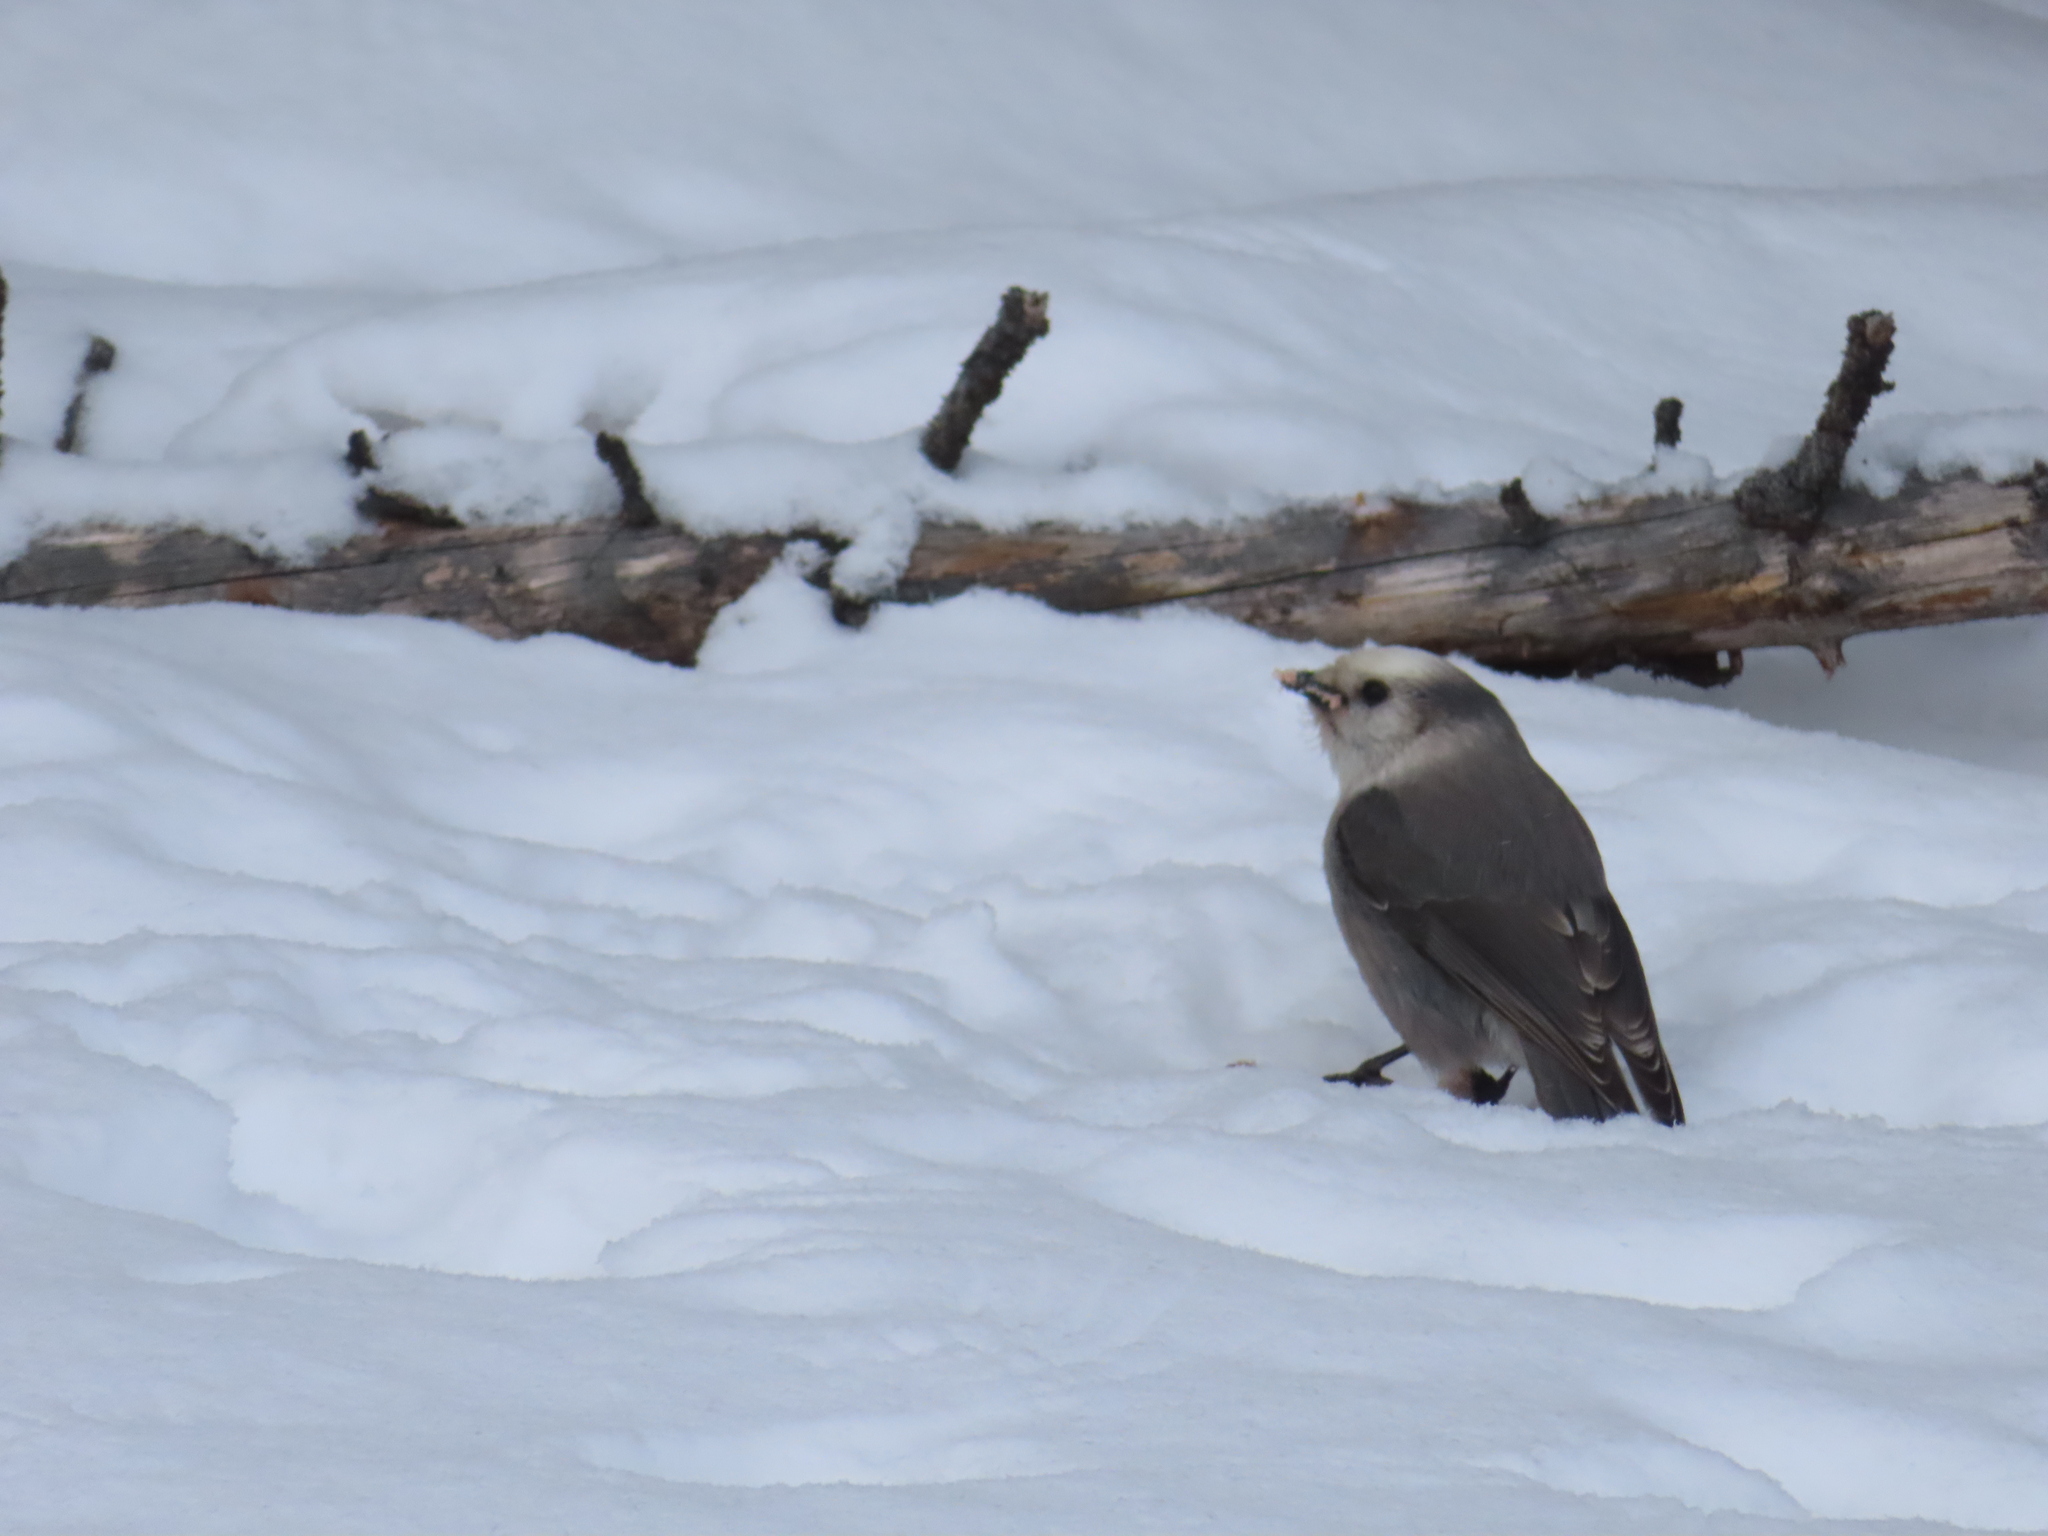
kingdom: Animalia
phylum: Chordata
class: Aves
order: Passeriformes
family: Corvidae
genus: Perisoreus
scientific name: Perisoreus canadensis
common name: Gray jay
